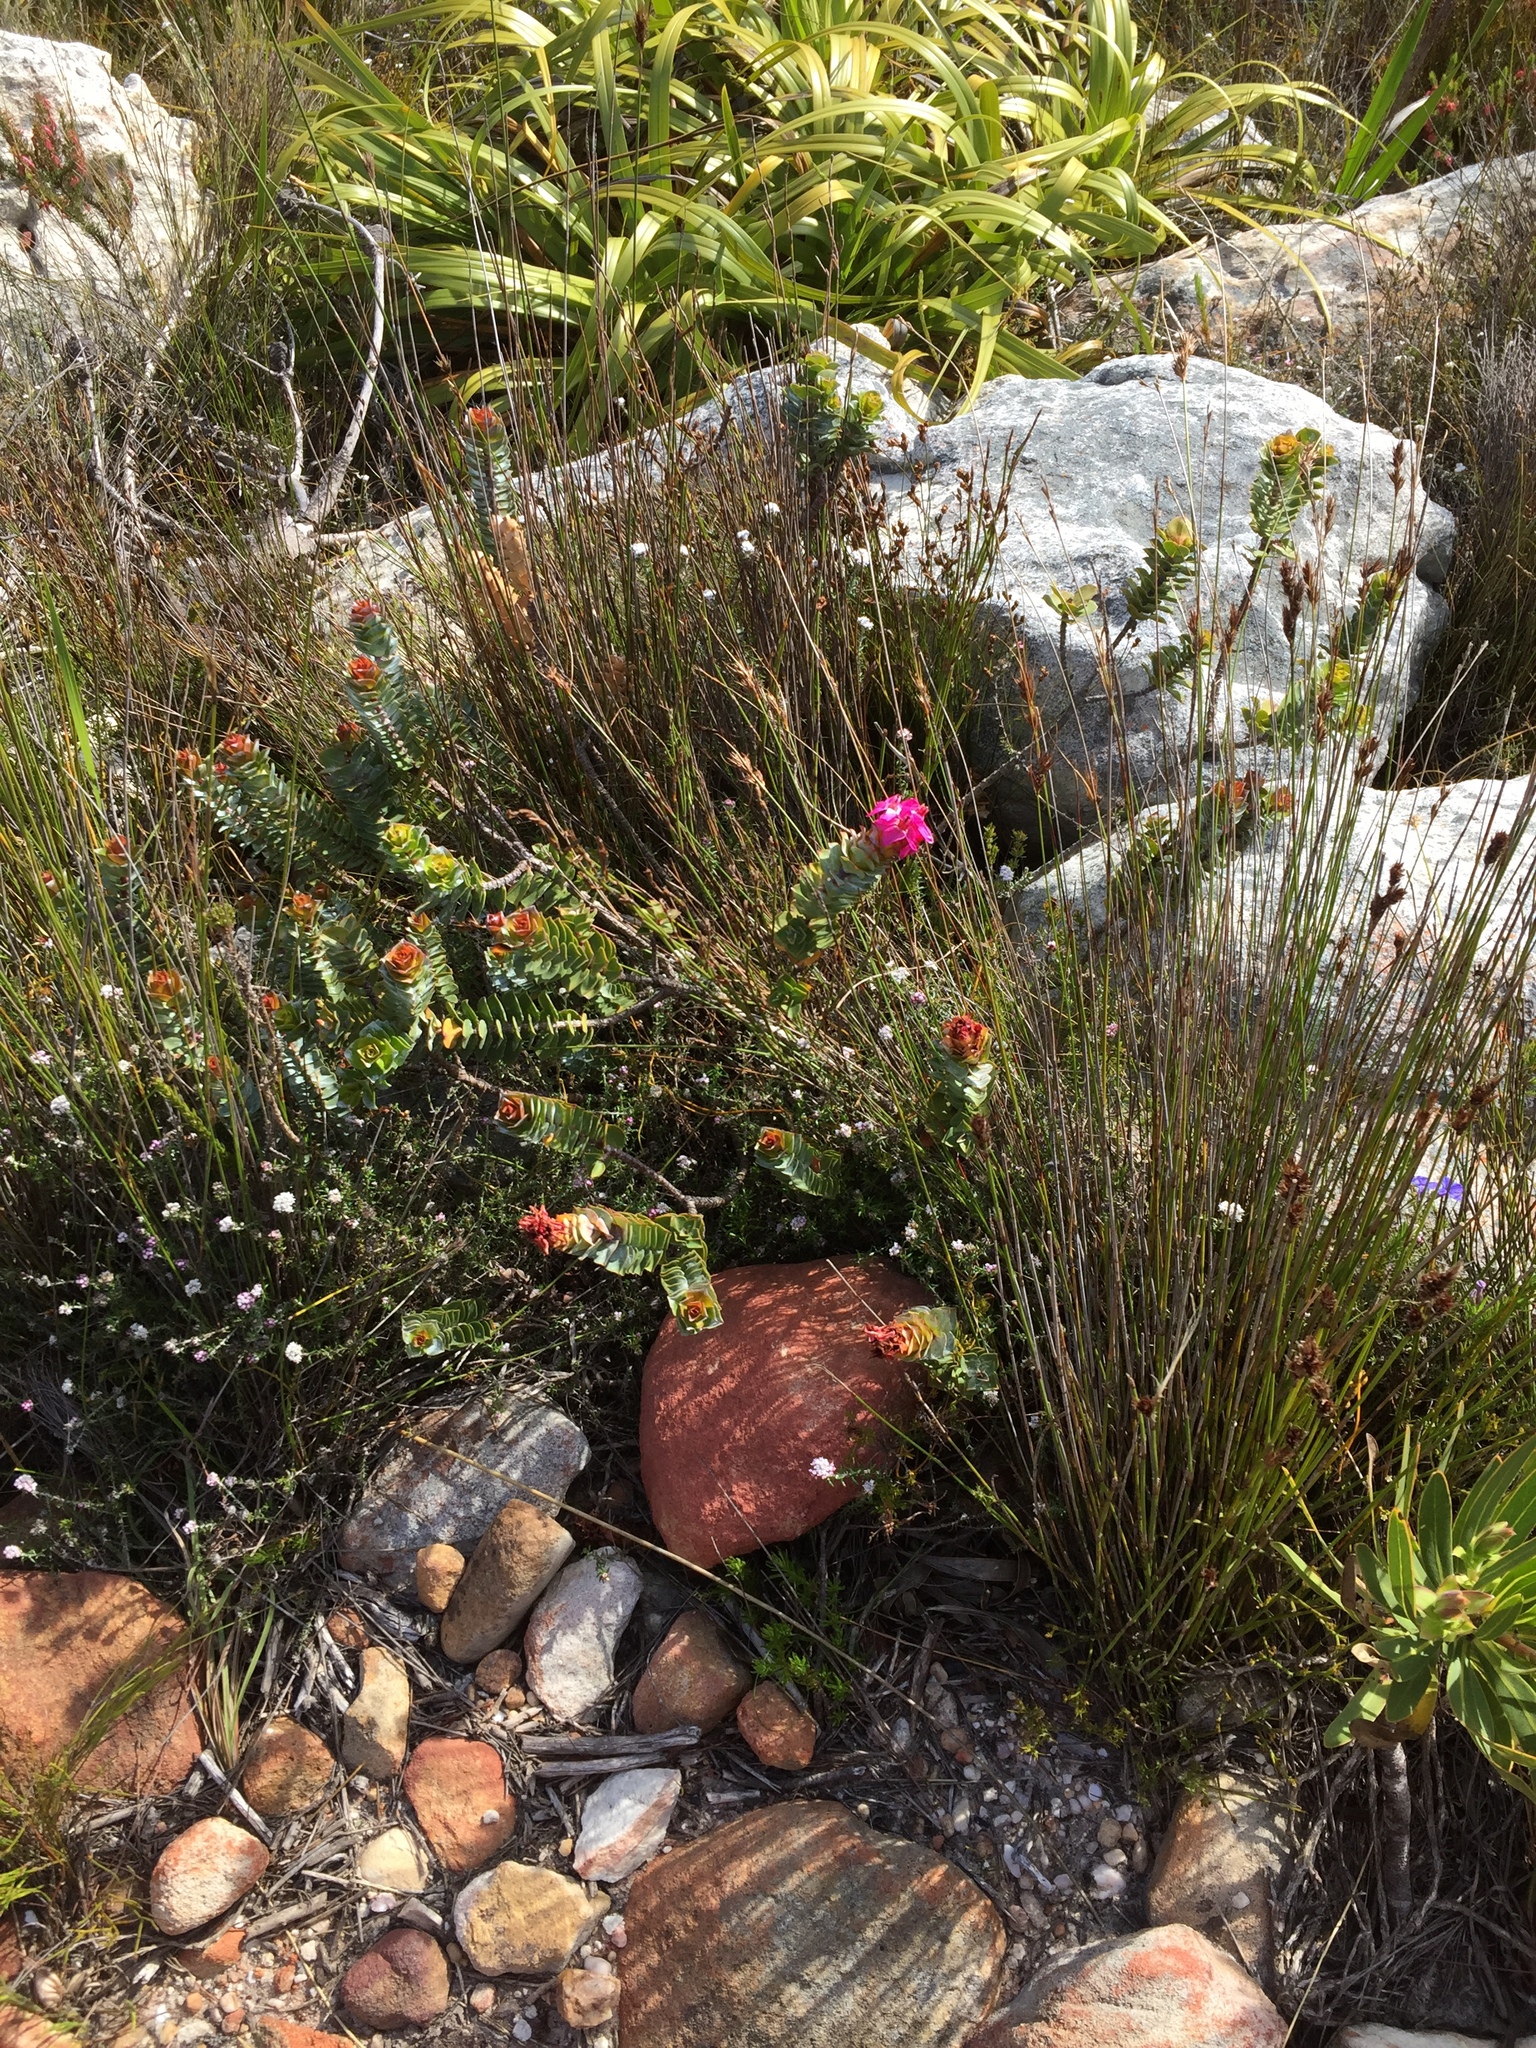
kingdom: Plantae
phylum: Tracheophyta
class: Magnoliopsida
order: Myrtales
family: Penaeaceae
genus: Saltera
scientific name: Saltera sarcocolla
